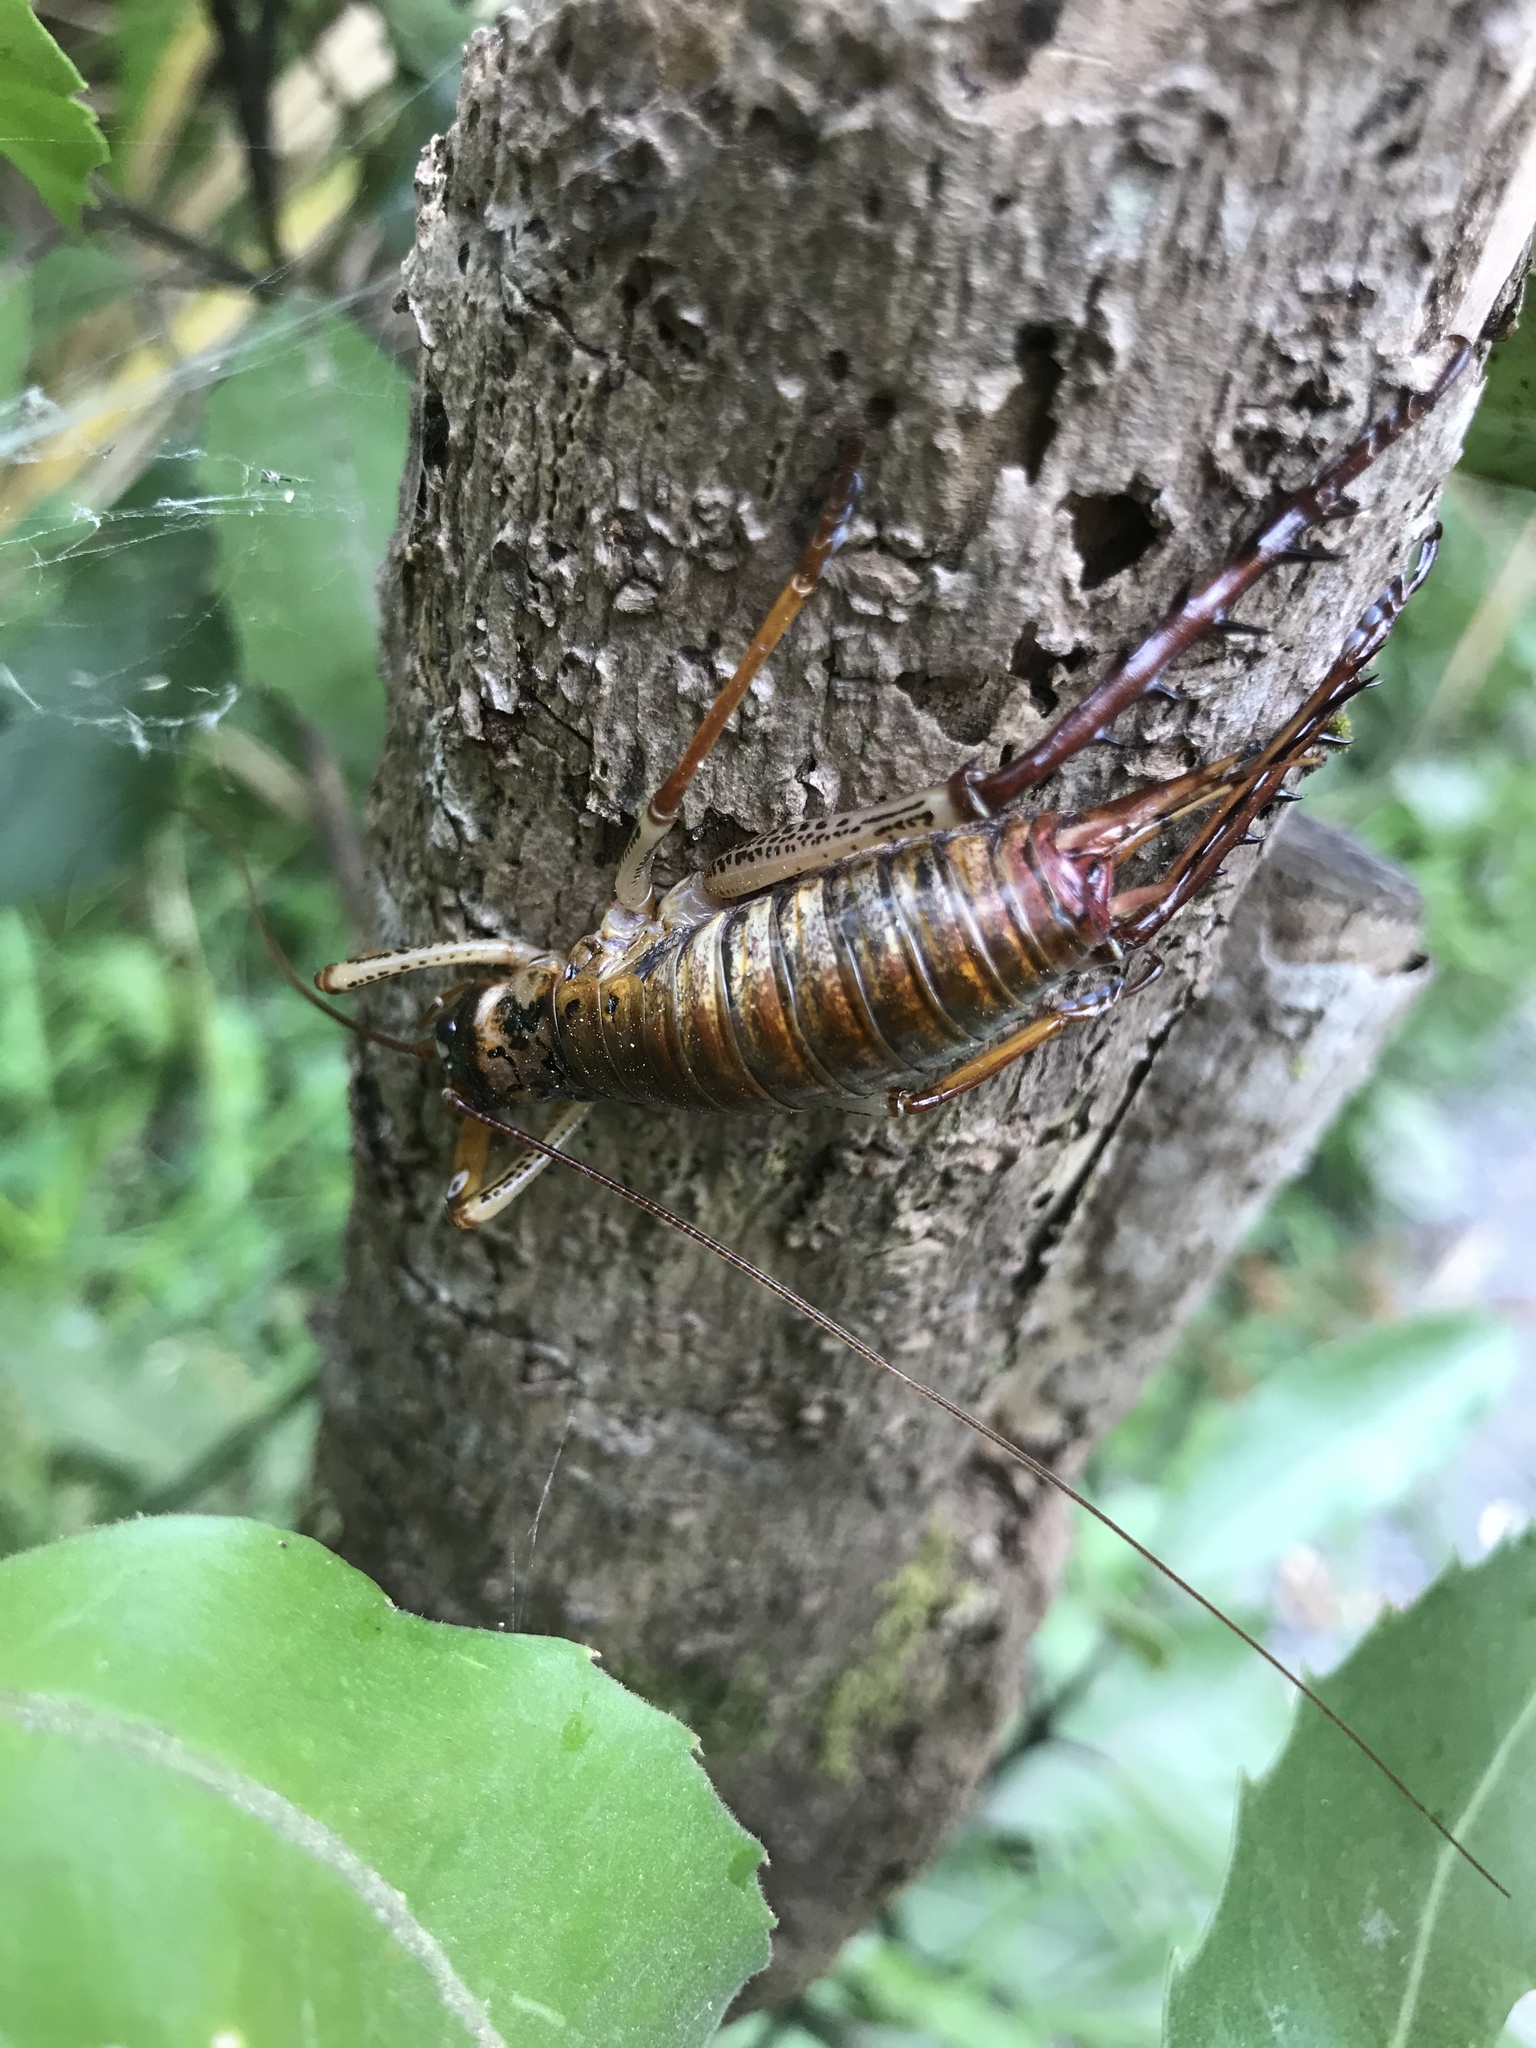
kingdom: Animalia
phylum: Arthropoda
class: Insecta
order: Orthoptera
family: Anostostomatidae
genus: Hemideina
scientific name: Hemideina thoracica
